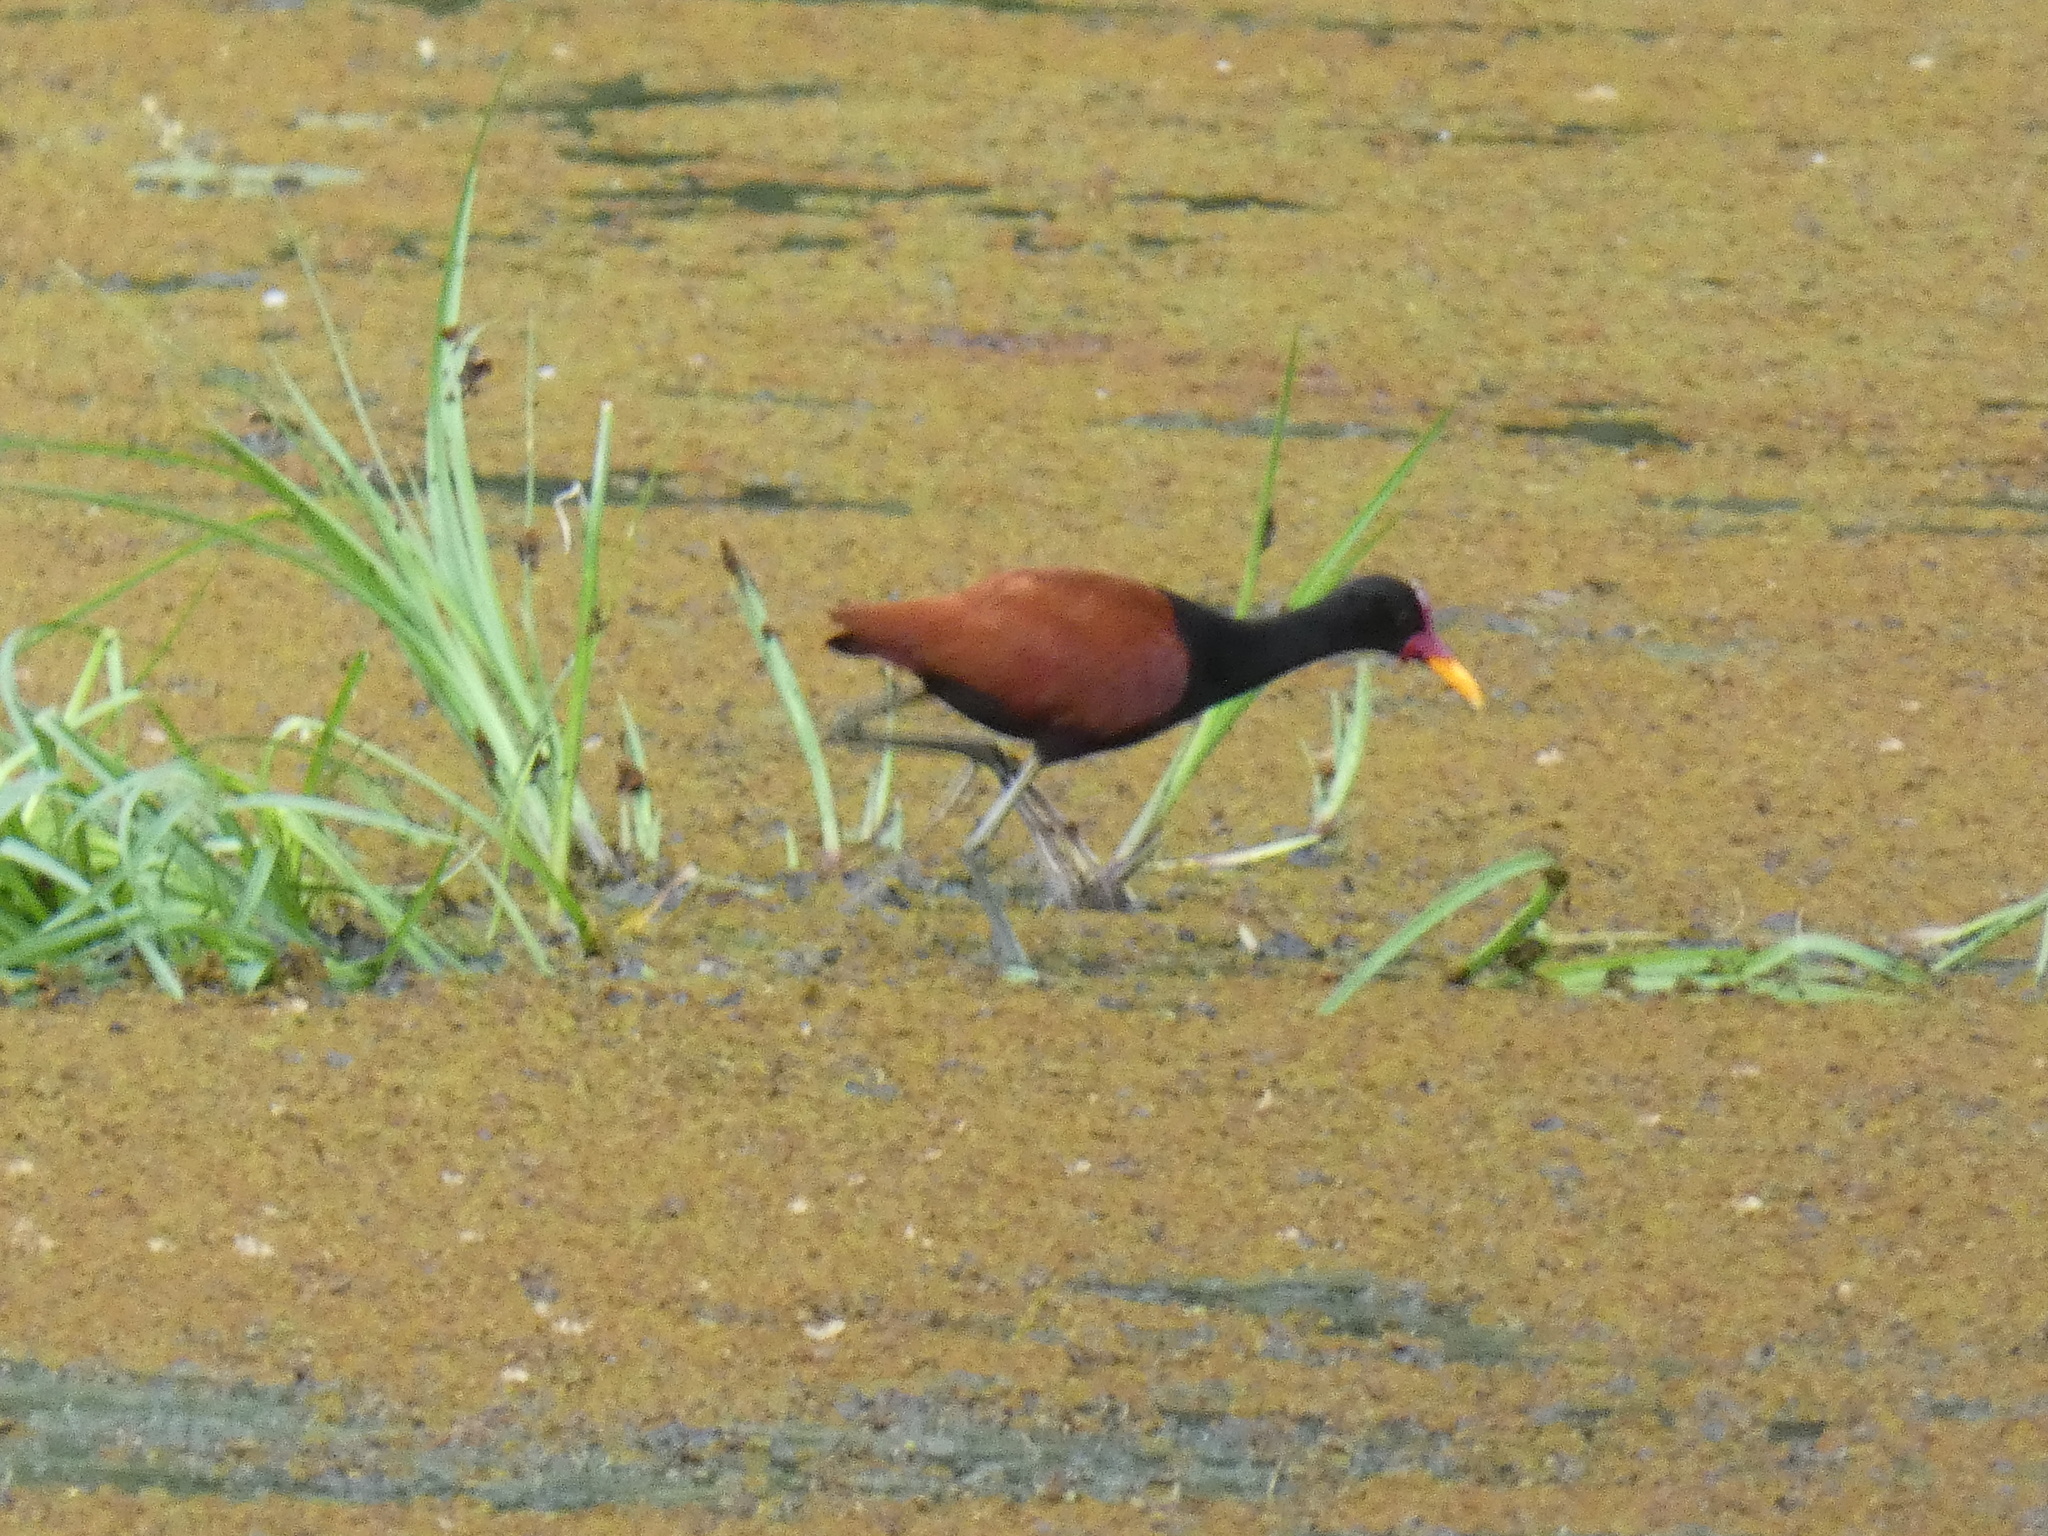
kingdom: Animalia
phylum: Chordata
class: Aves
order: Charadriiformes
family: Jacanidae
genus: Jacana
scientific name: Jacana jacana
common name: Wattled jacana
